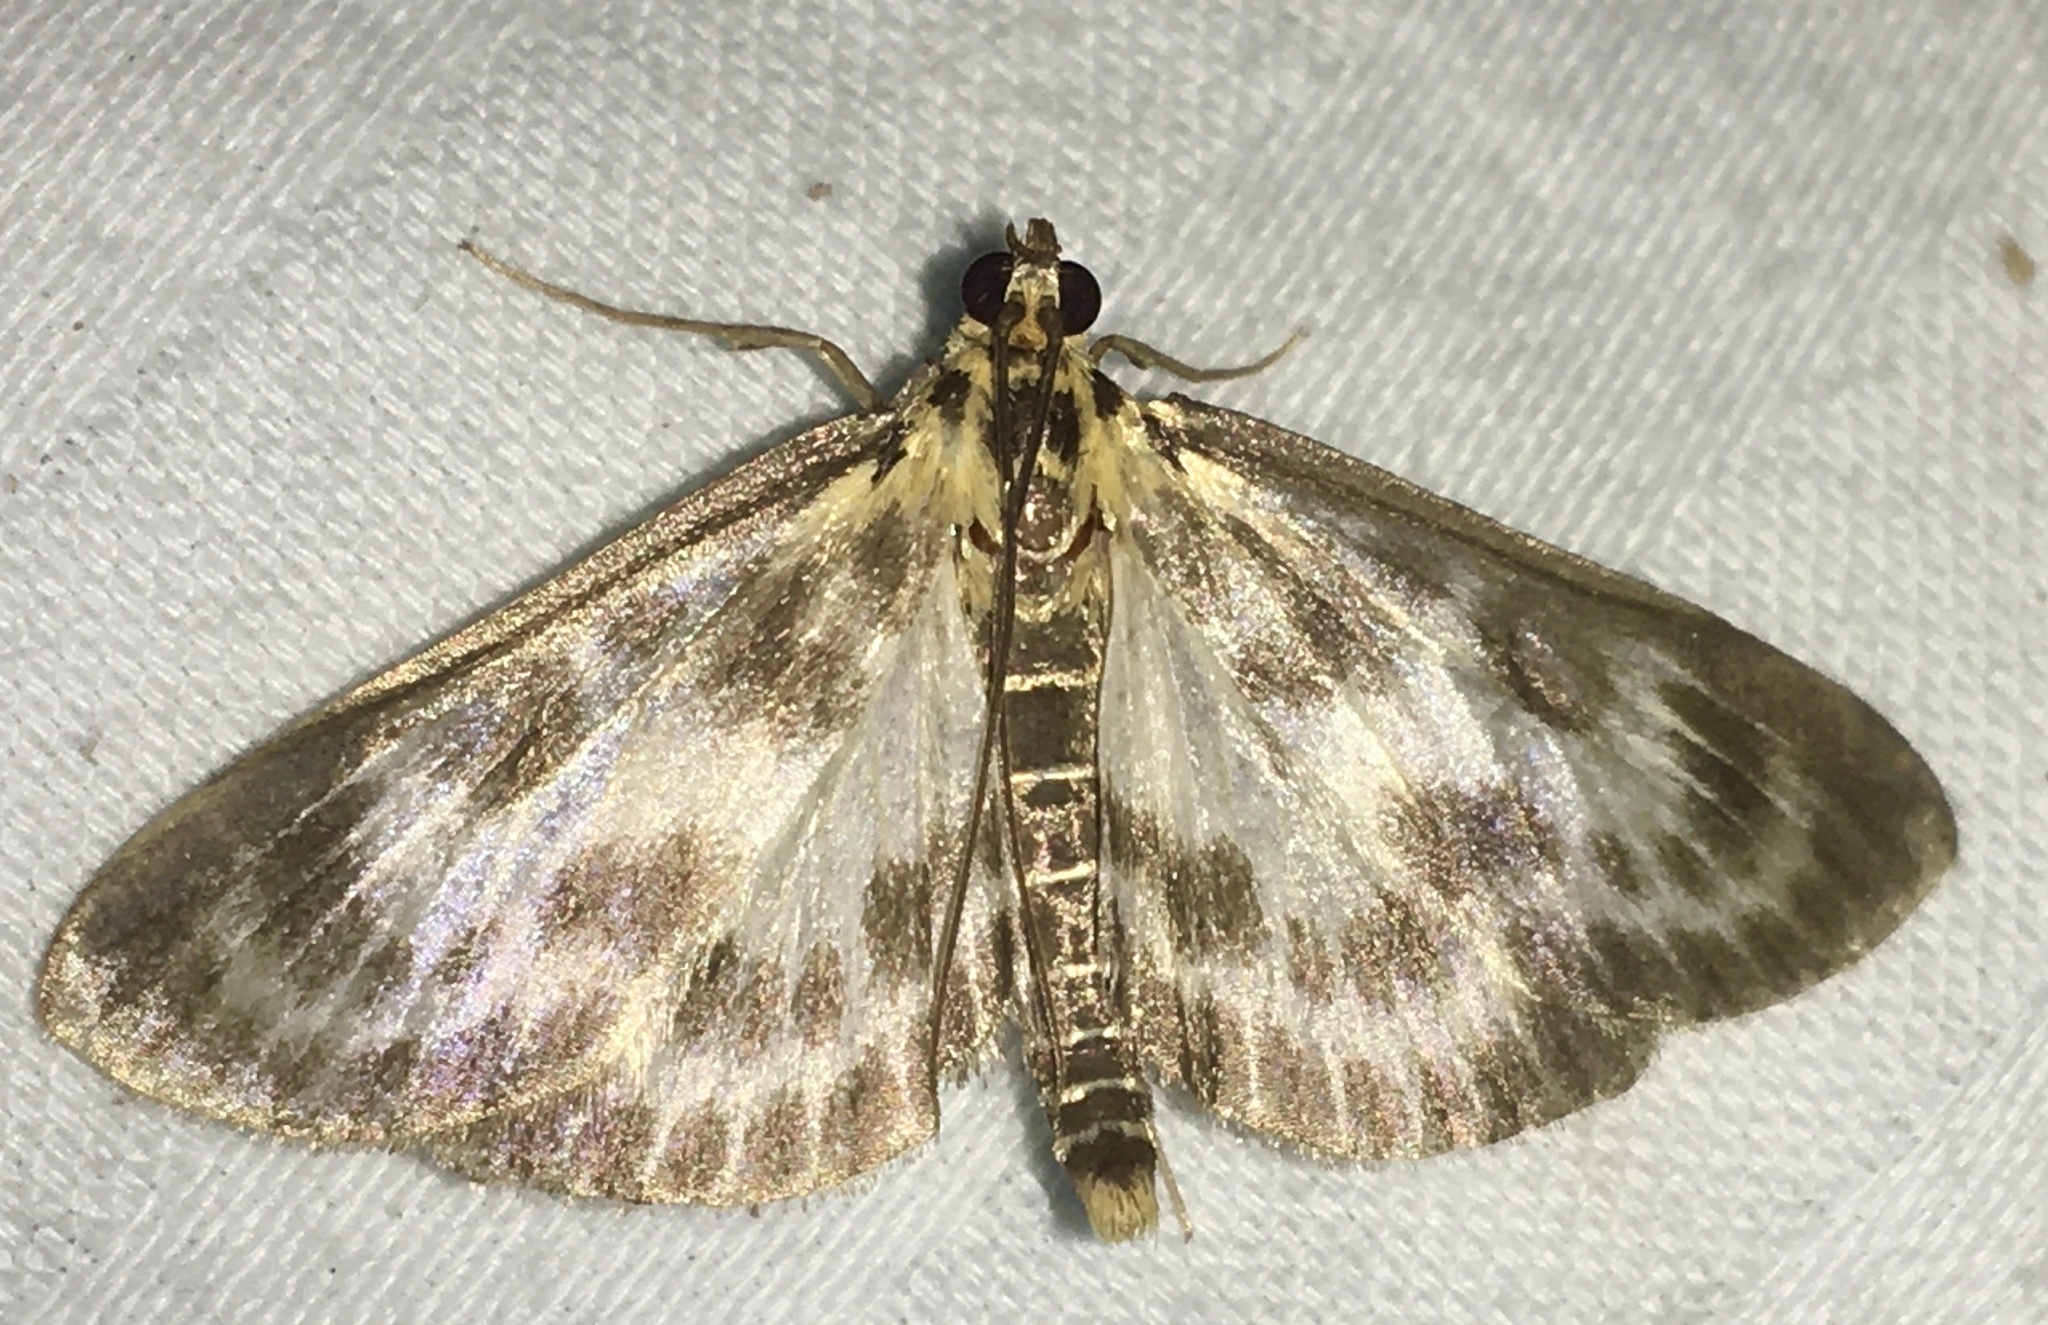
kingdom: Animalia
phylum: Arthropoda
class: Insecta
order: Lepidoptera
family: Crambidae
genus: Anania
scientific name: Anania hortulata
